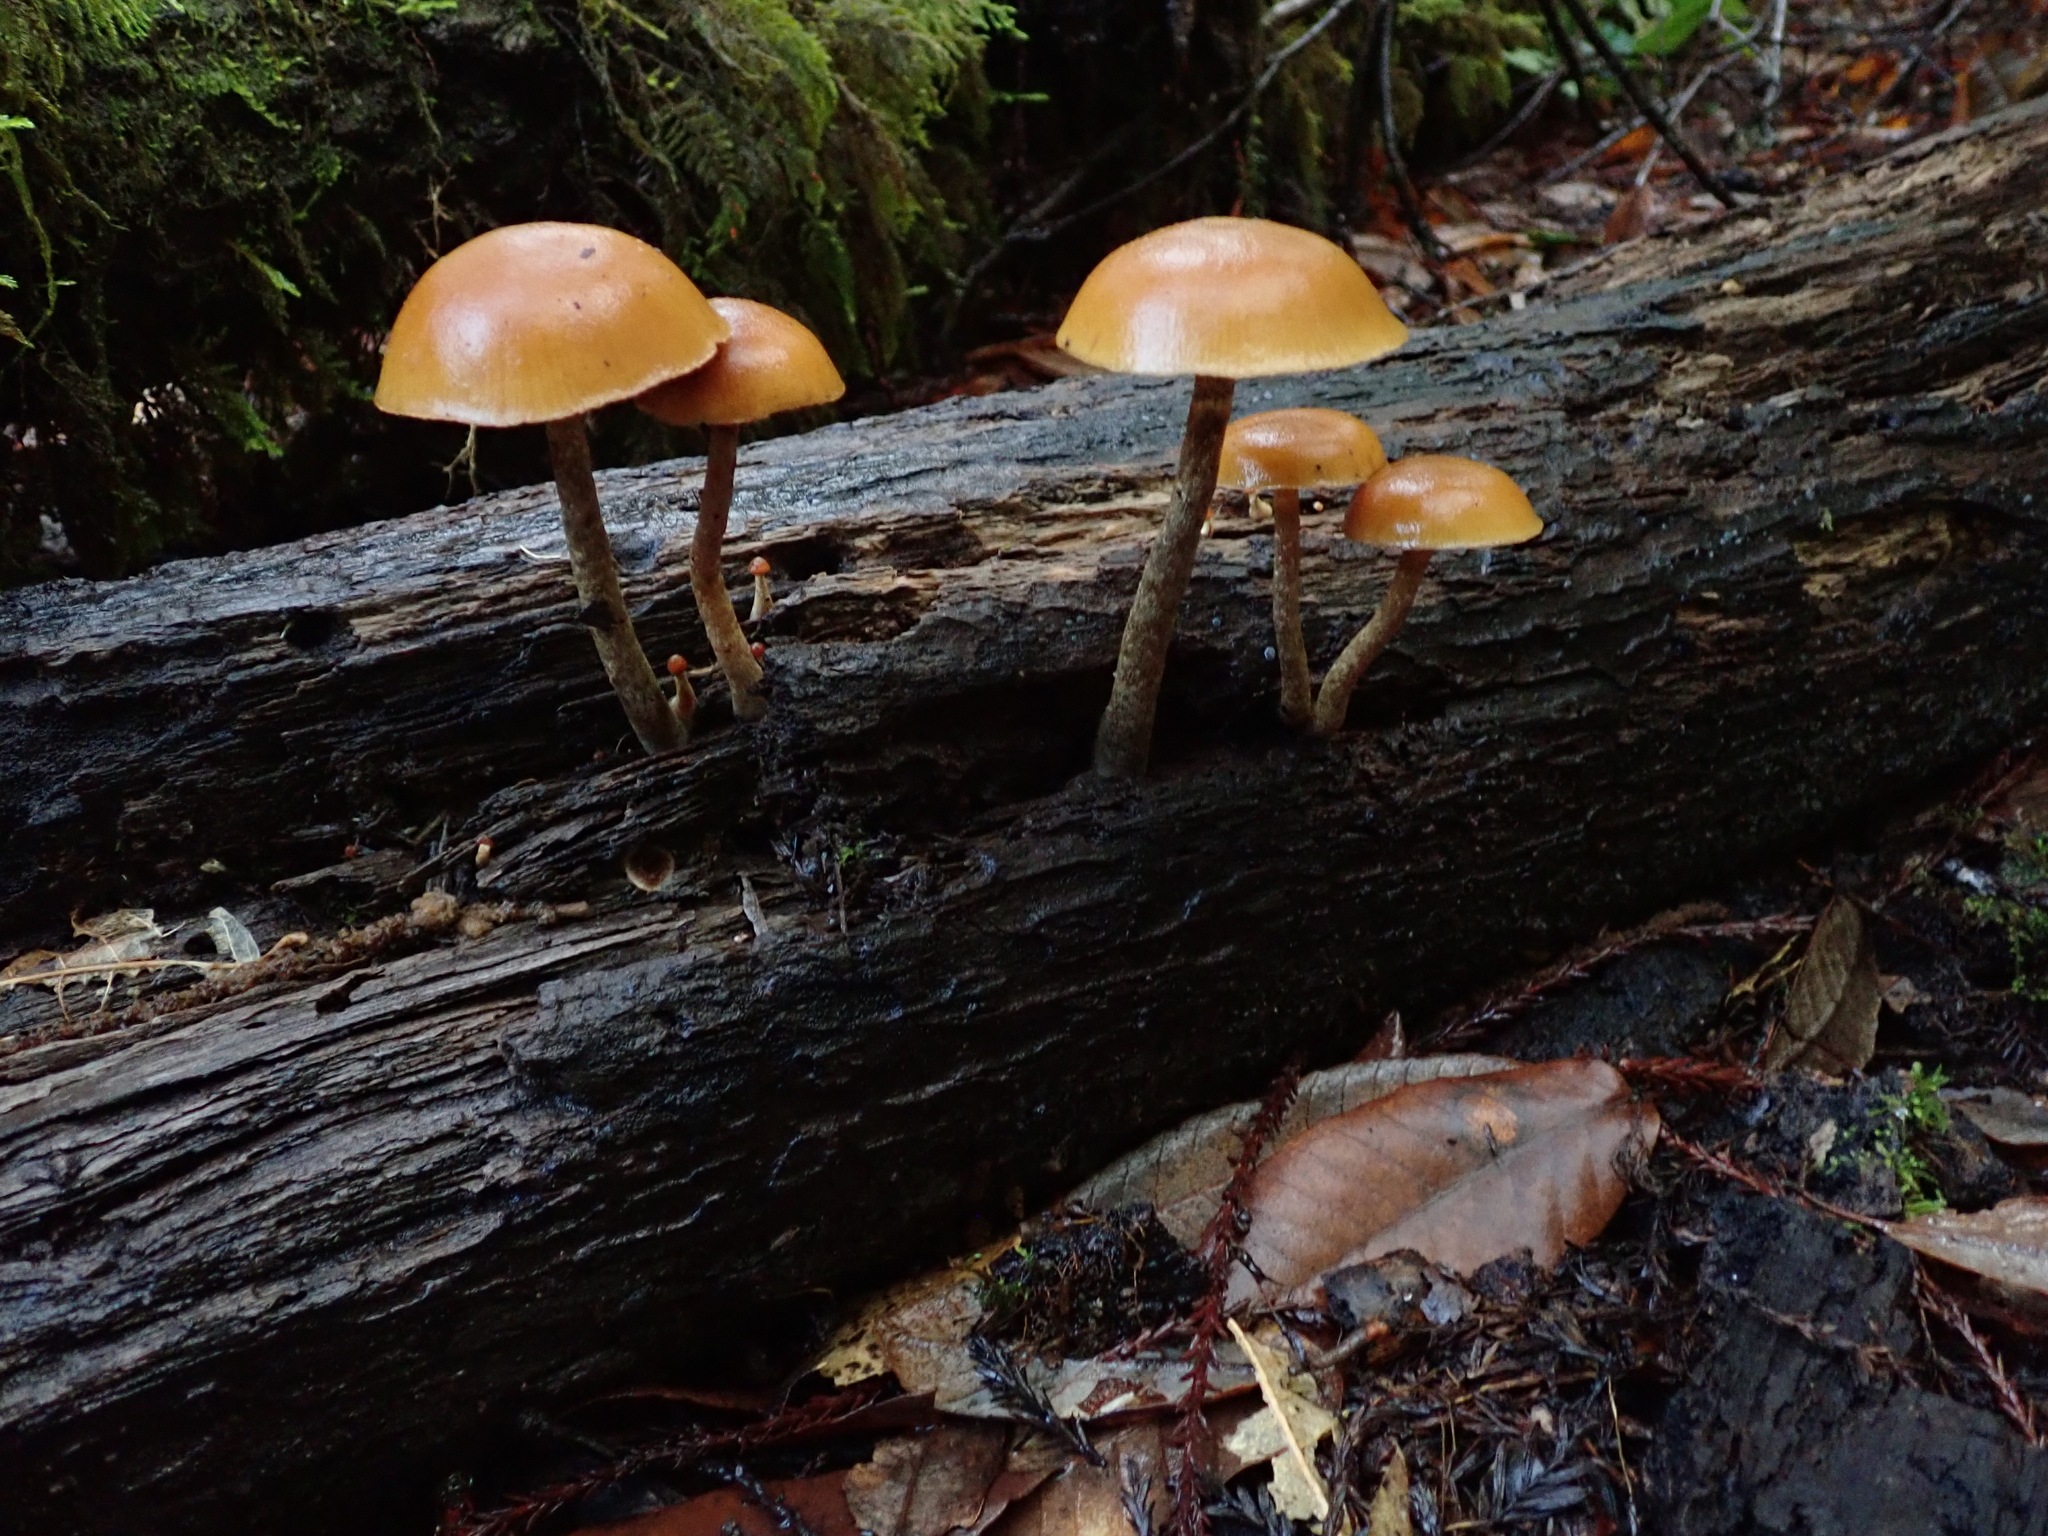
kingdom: Fungi
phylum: Basidiomycota
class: Agaricomycetes
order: Agaricales
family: Hymenogastraceae
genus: Galerina
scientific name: Galerina marginata
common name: Funeral bell
